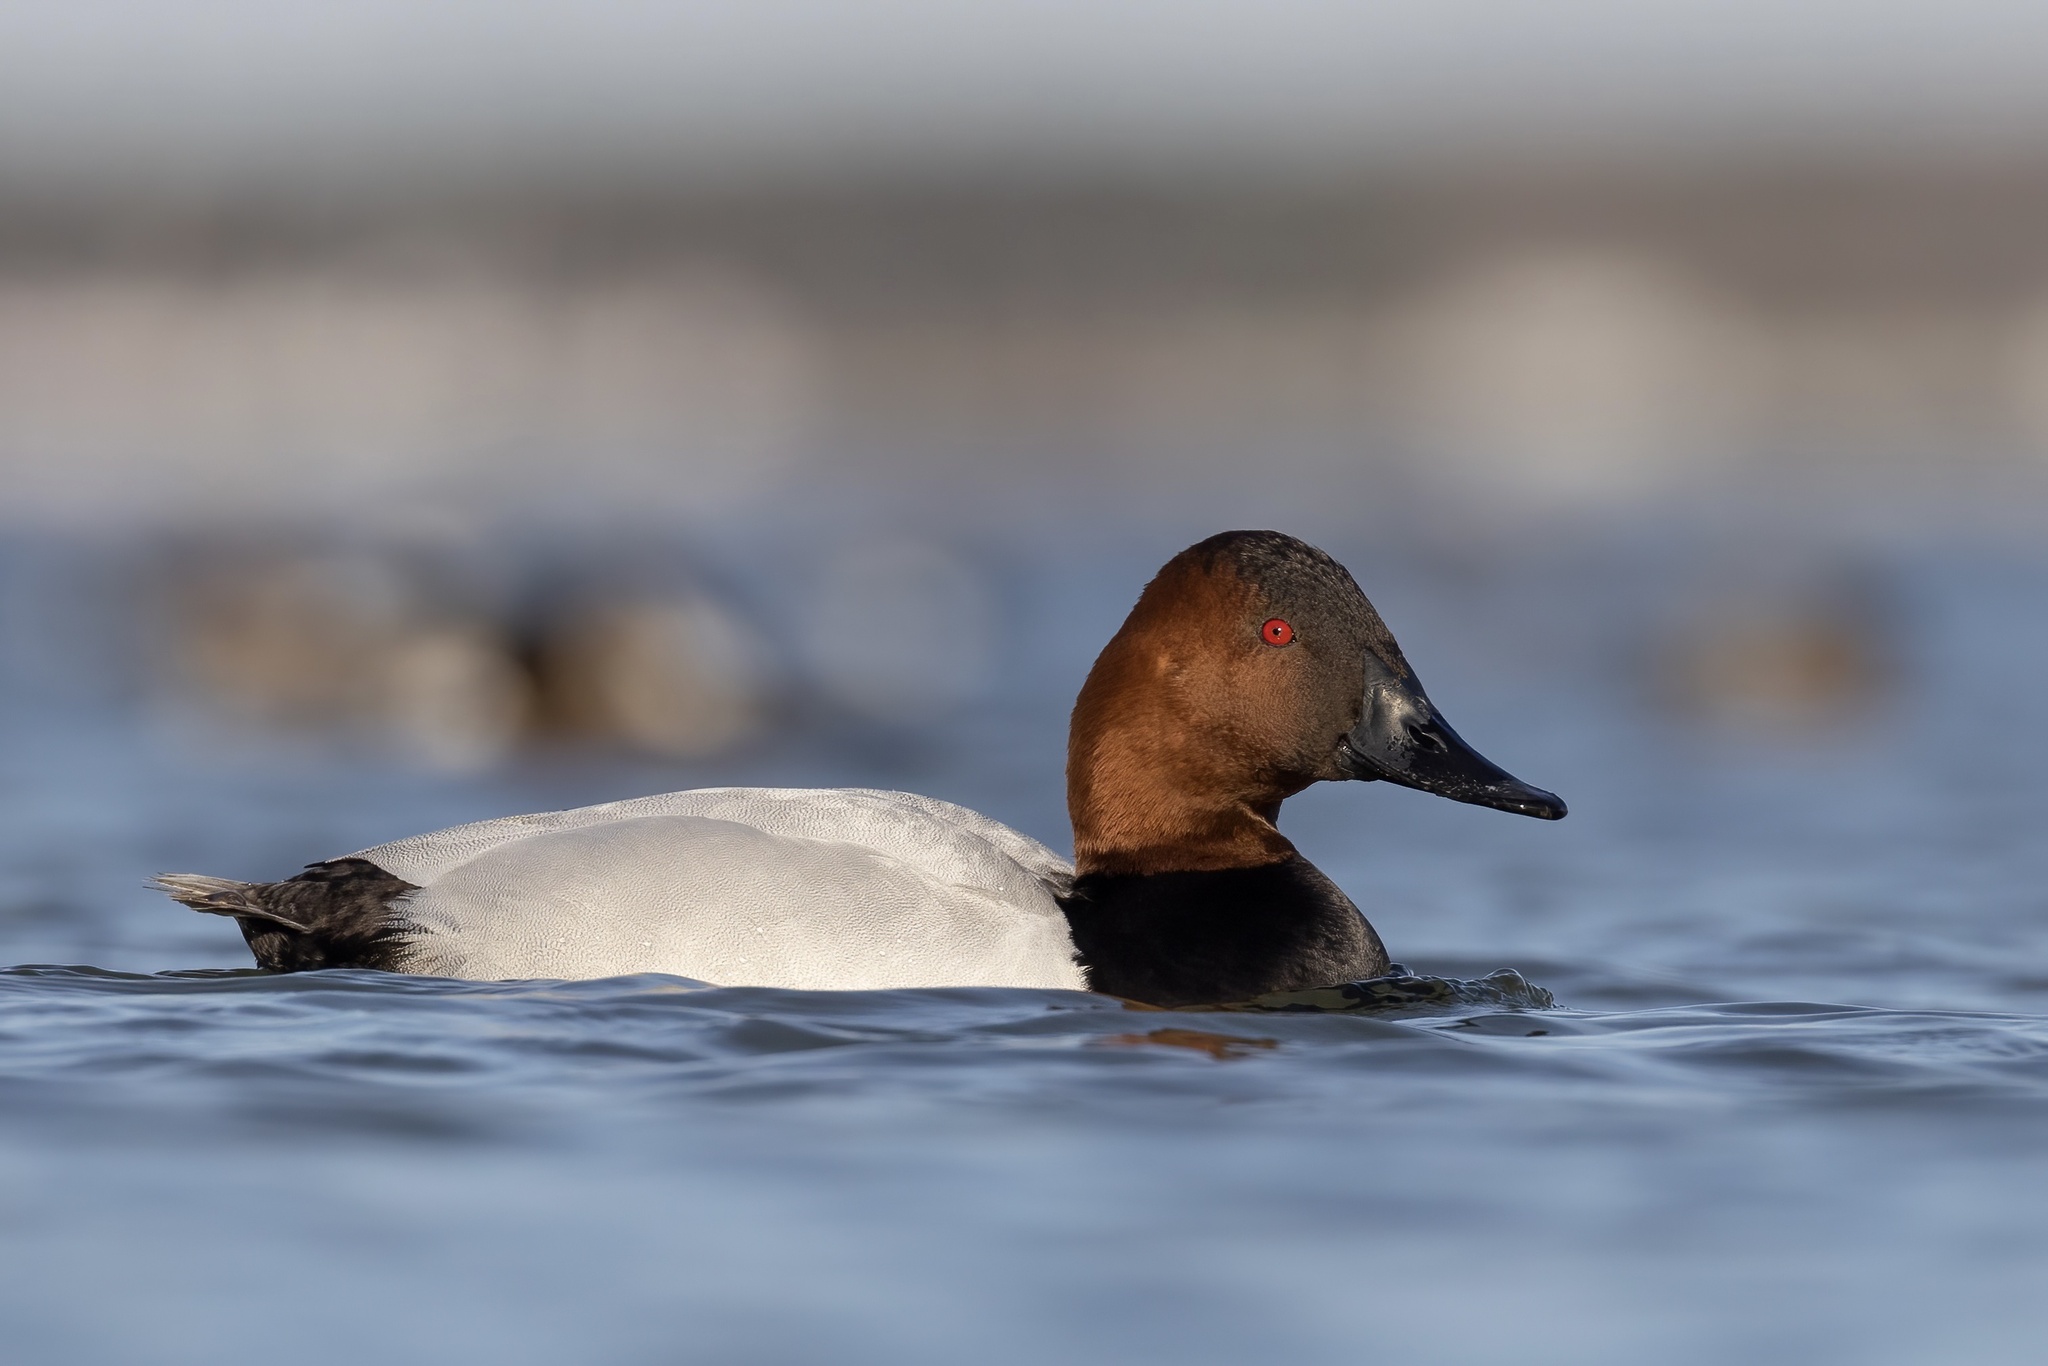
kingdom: Animalia
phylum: Chordata
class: Aves
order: Anseriformes
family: Anatidae
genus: Aythya
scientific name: Aythya valisineria
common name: Canvasback
